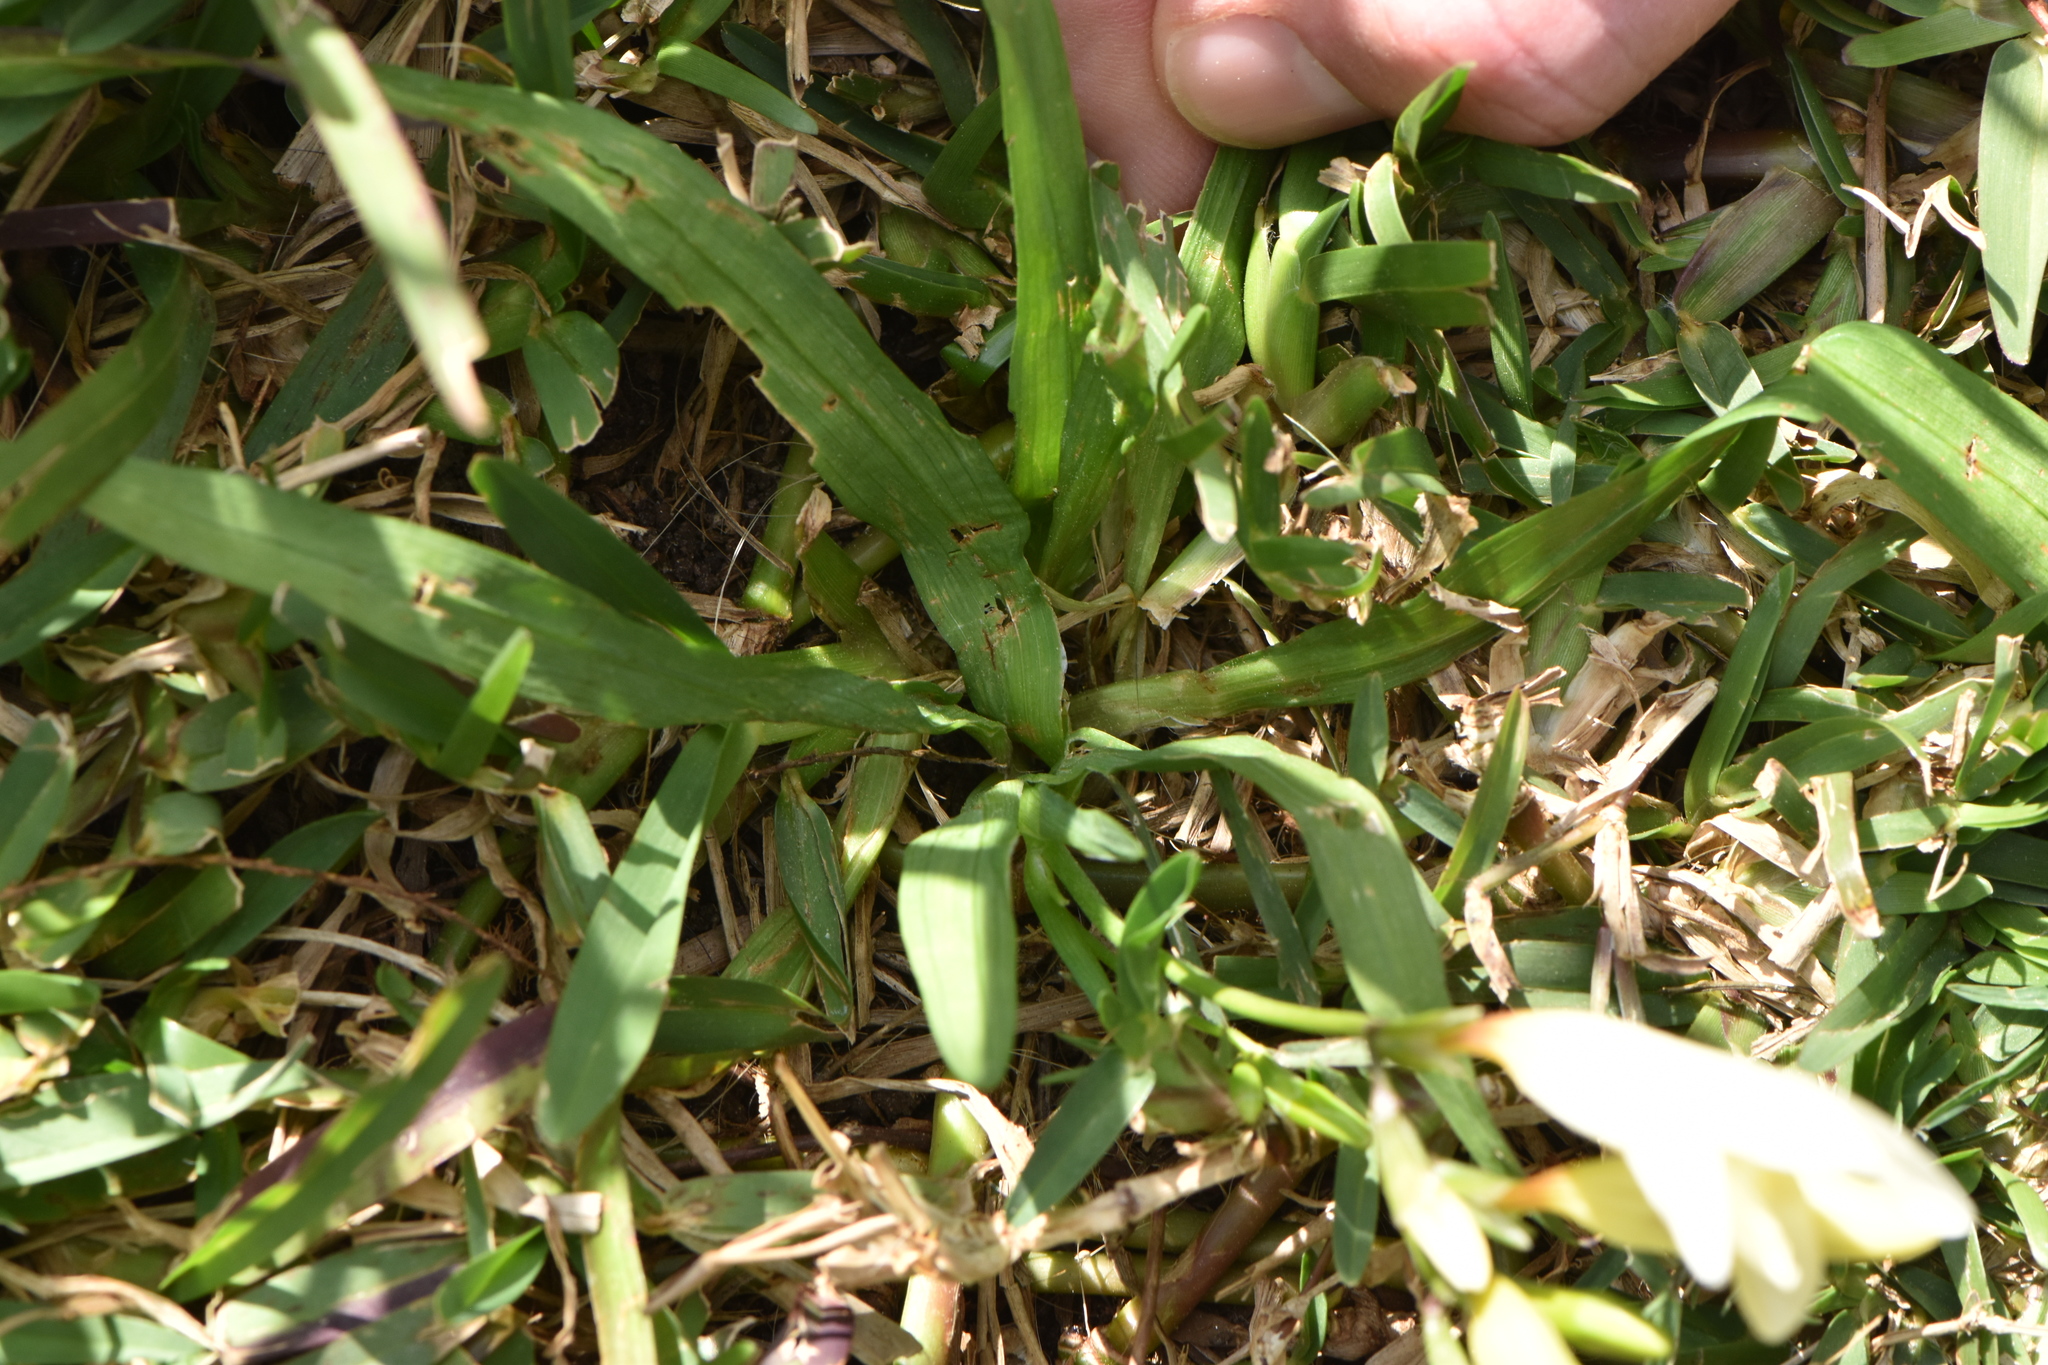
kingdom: Plantae
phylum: Tracheophyta
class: Liliopsida
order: Asparagales
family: Iridaceae
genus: Freesia
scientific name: Freesia refracta
